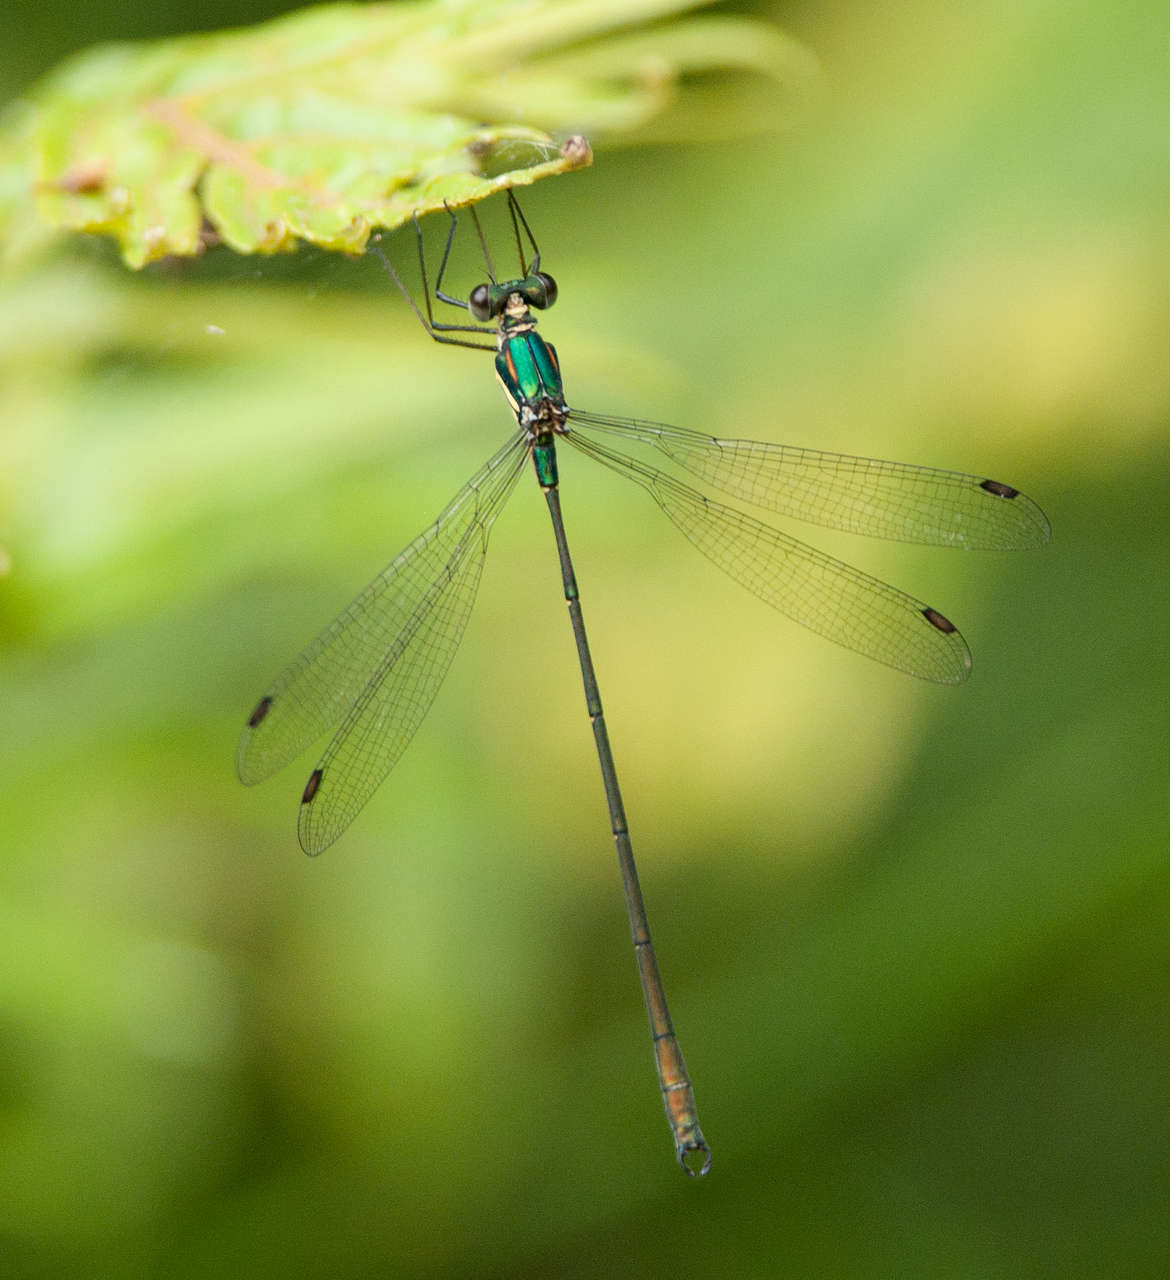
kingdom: Animalia
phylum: Arthropoda
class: Insecta
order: Odonata
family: Synlestidae
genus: Synlestes
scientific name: Synlestes weyersii
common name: Bronze needle
